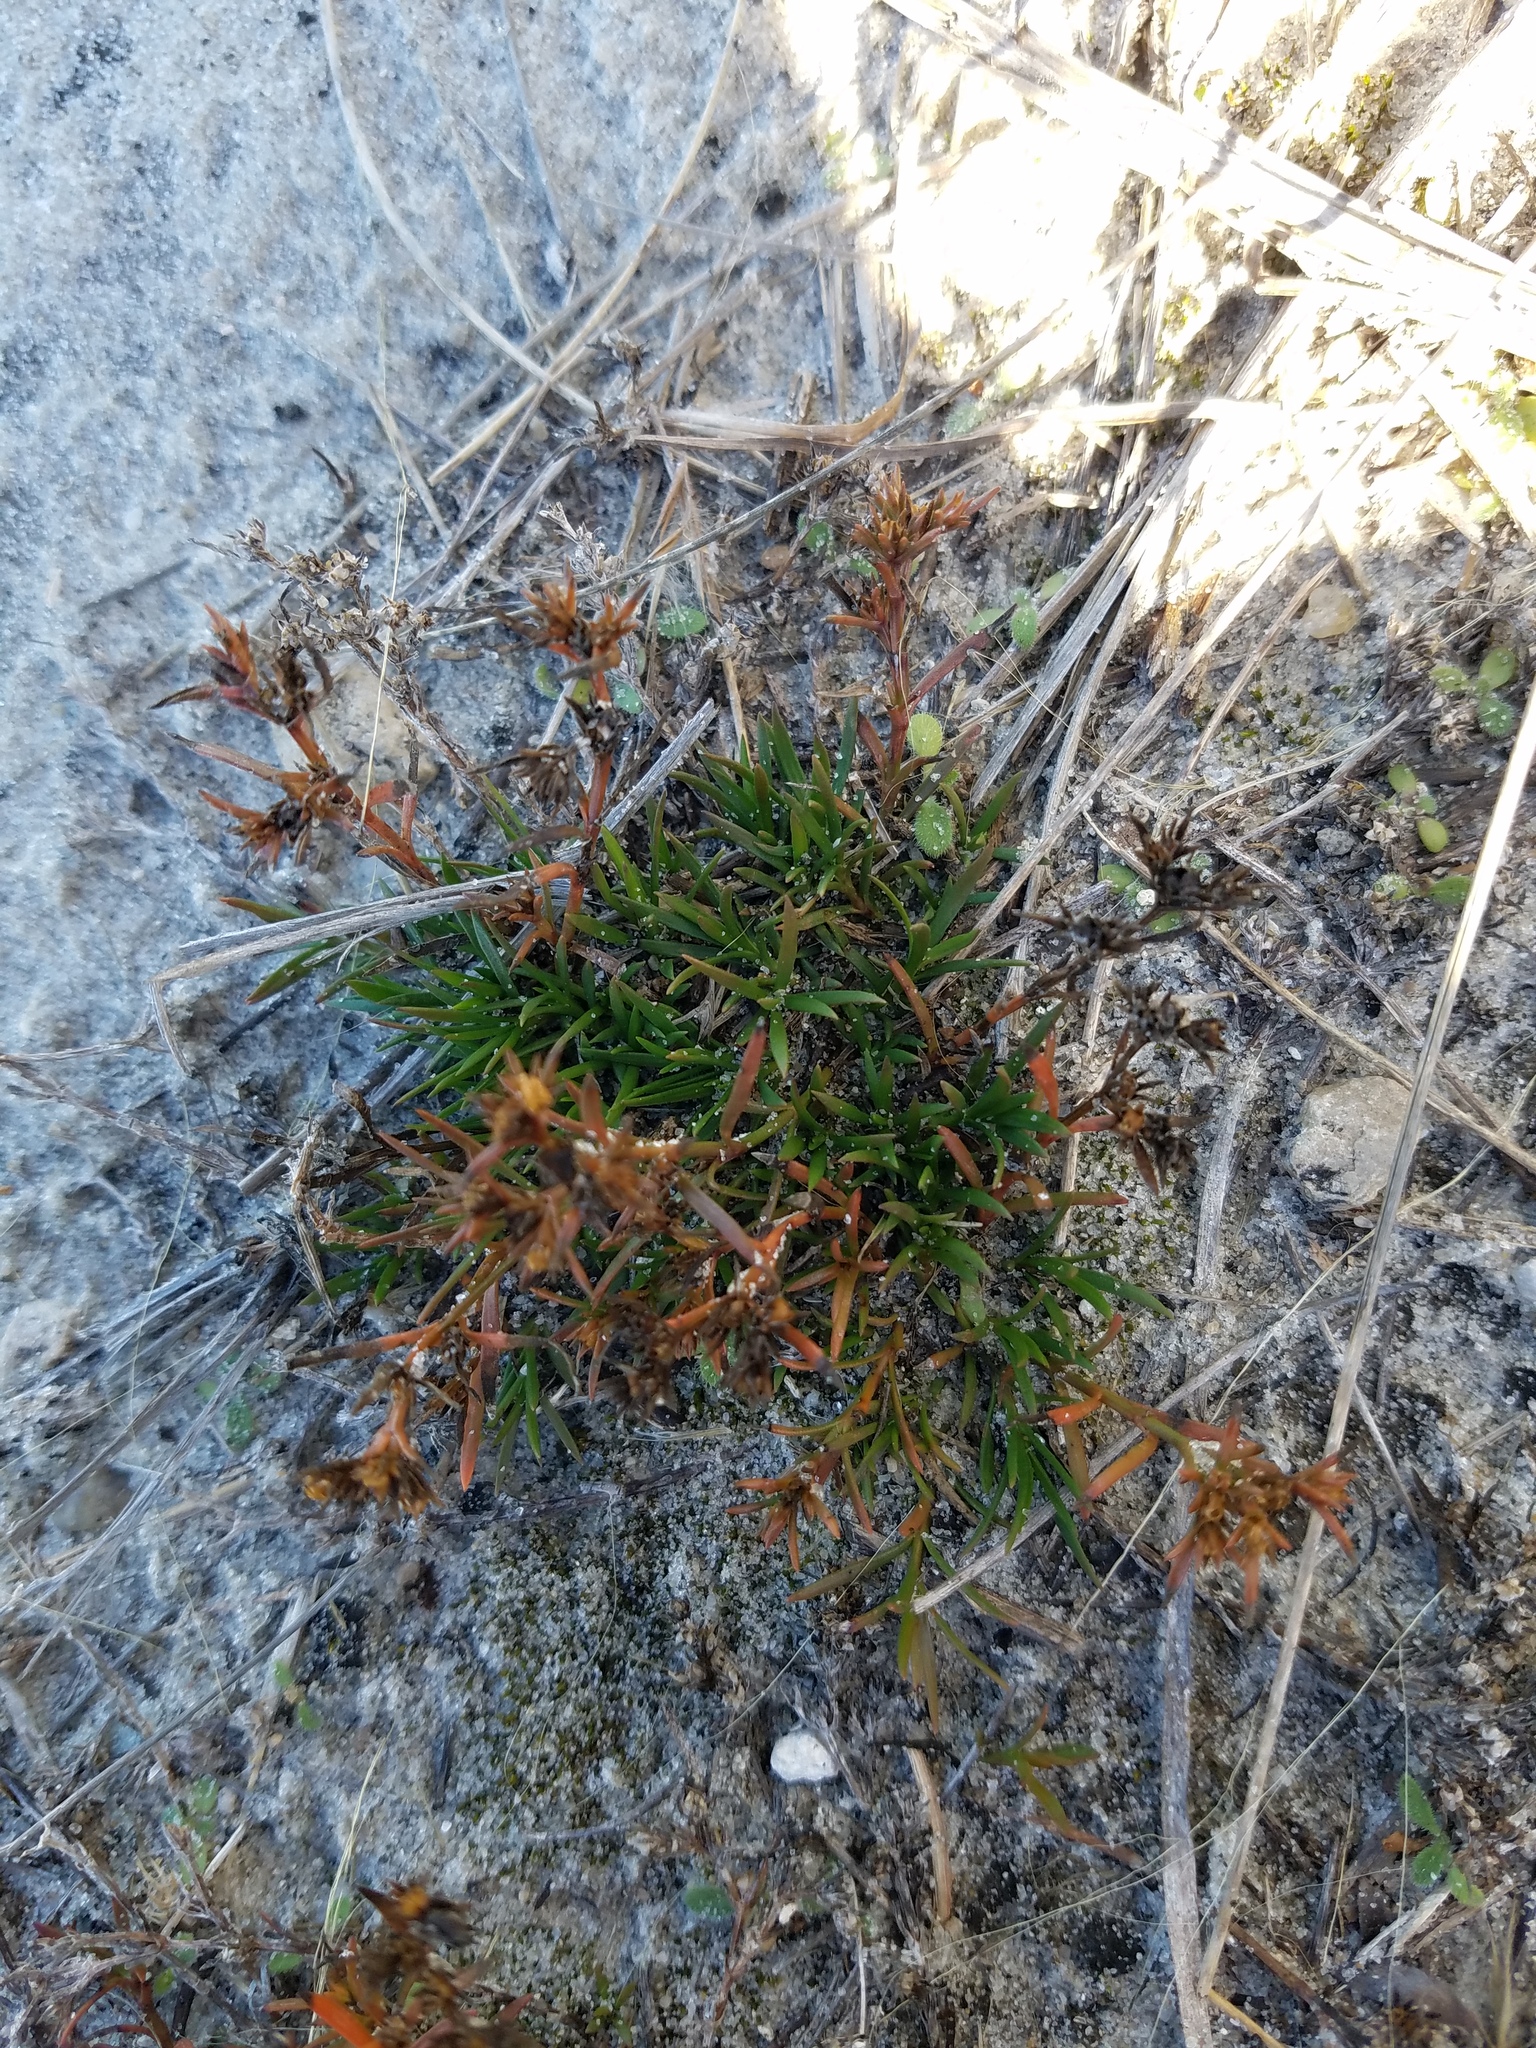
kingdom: Plantae
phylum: Tracheophyta
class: Magnoliopsida
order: Lamiales
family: Tetrachondraceae
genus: Polypremum
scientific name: Polypremum procumbens
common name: Juniper-leaf
